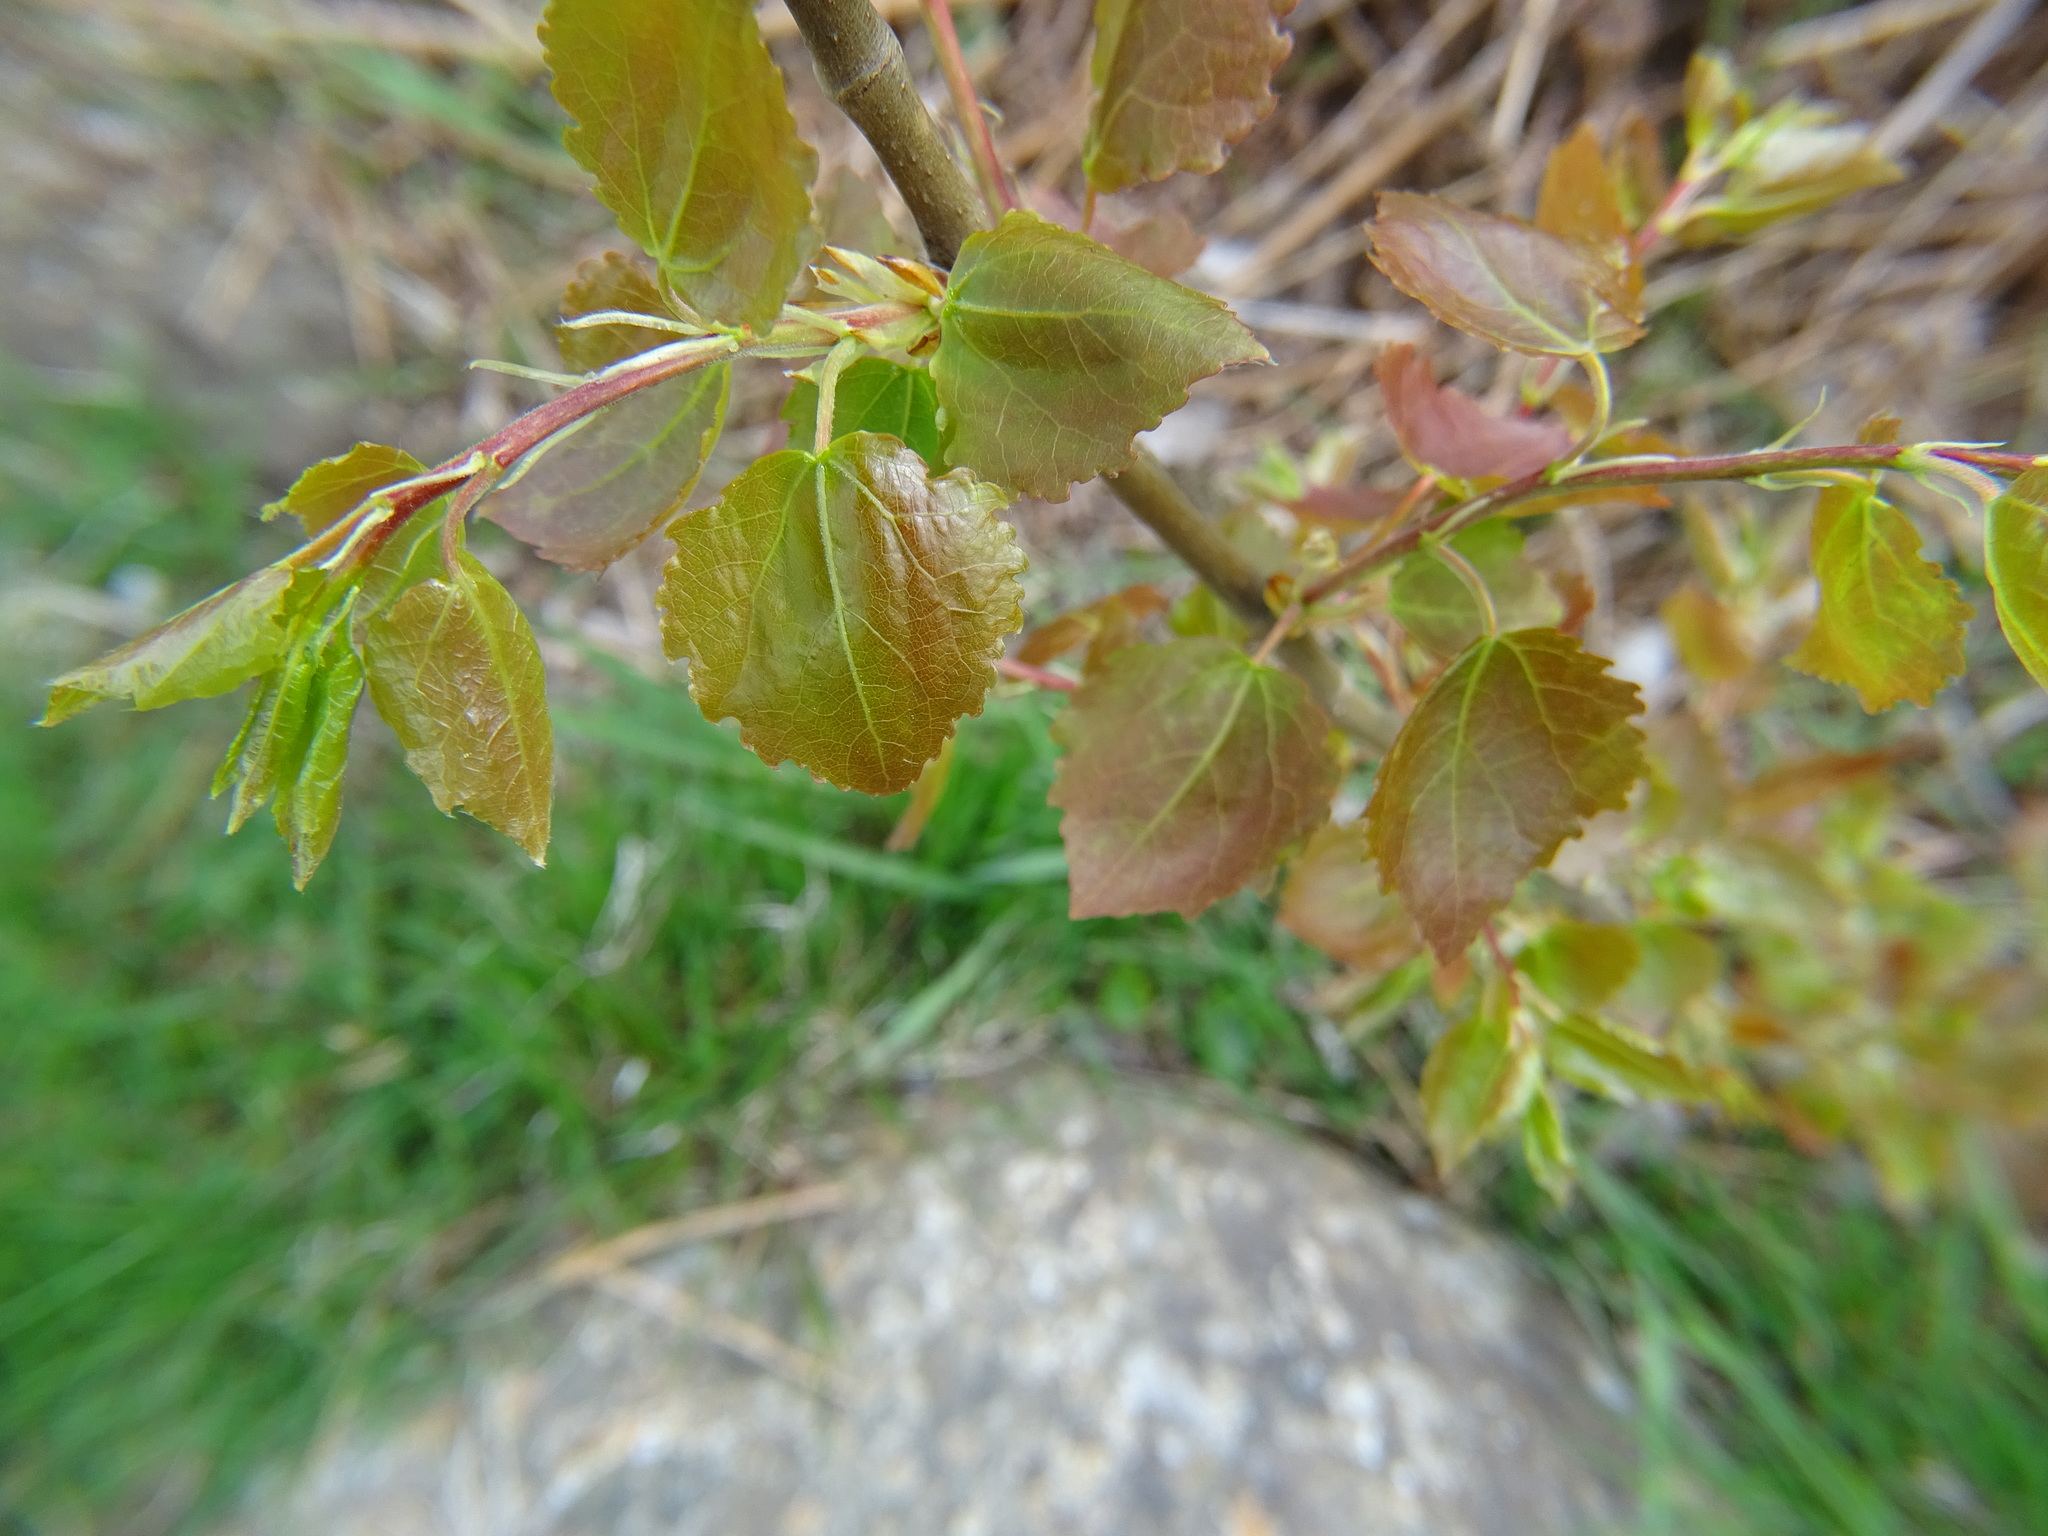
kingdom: Plantae
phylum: Tracheophyta
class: Magnoliopsida
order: Malpighiales
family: Salicaceae
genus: Populus
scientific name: Populus tremula
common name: European aspen
